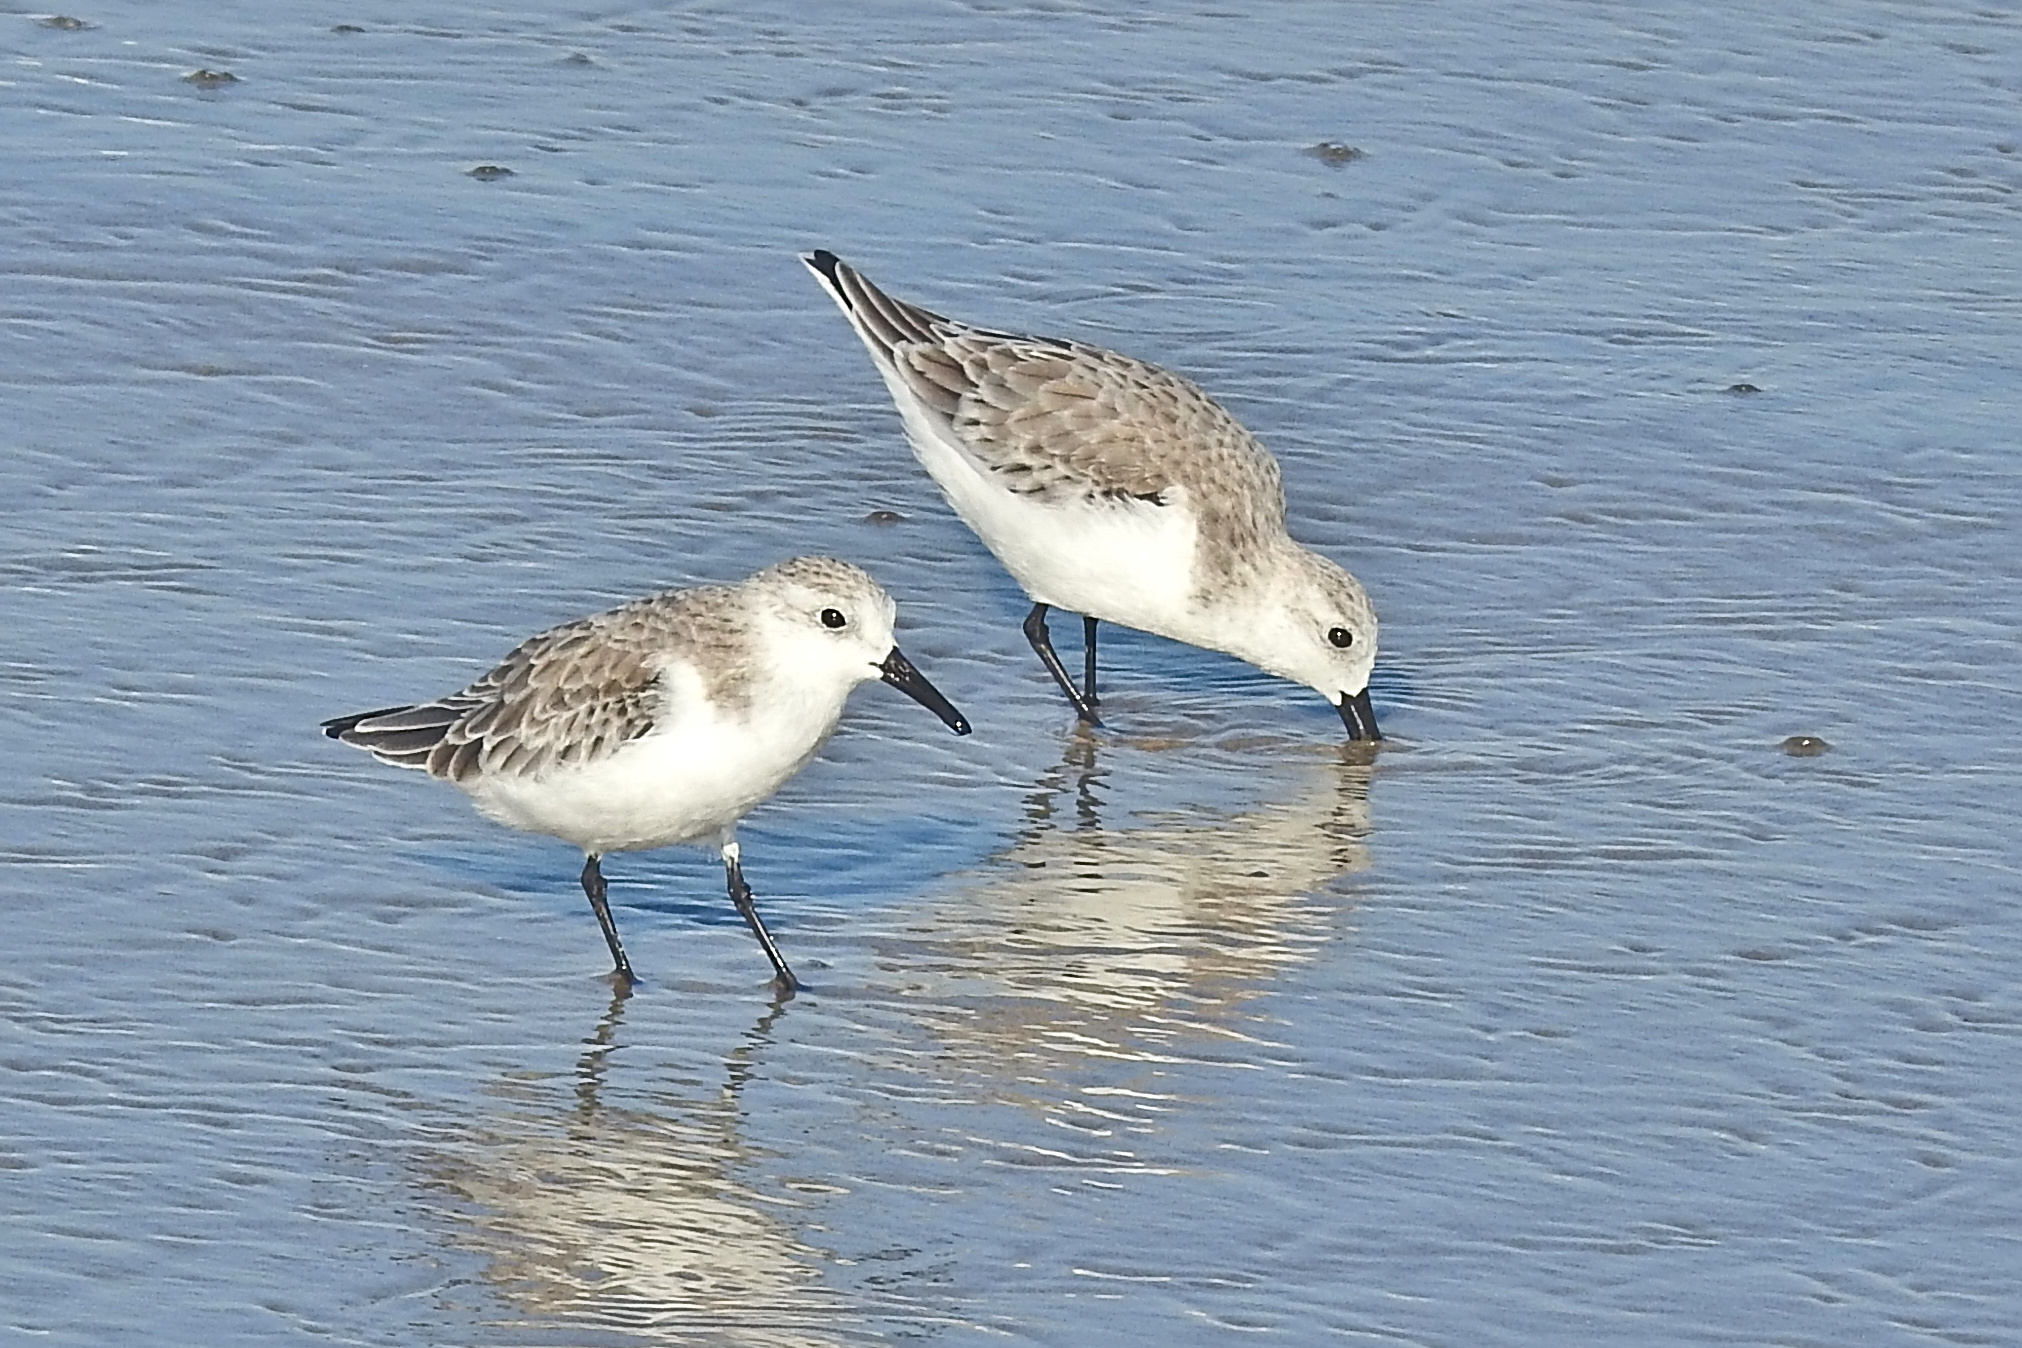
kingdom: Animalia
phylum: Chordata
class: Aves
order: Charadriiformes
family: Scolopacidae
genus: Calidris
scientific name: Calidris alba
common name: Sanderling
